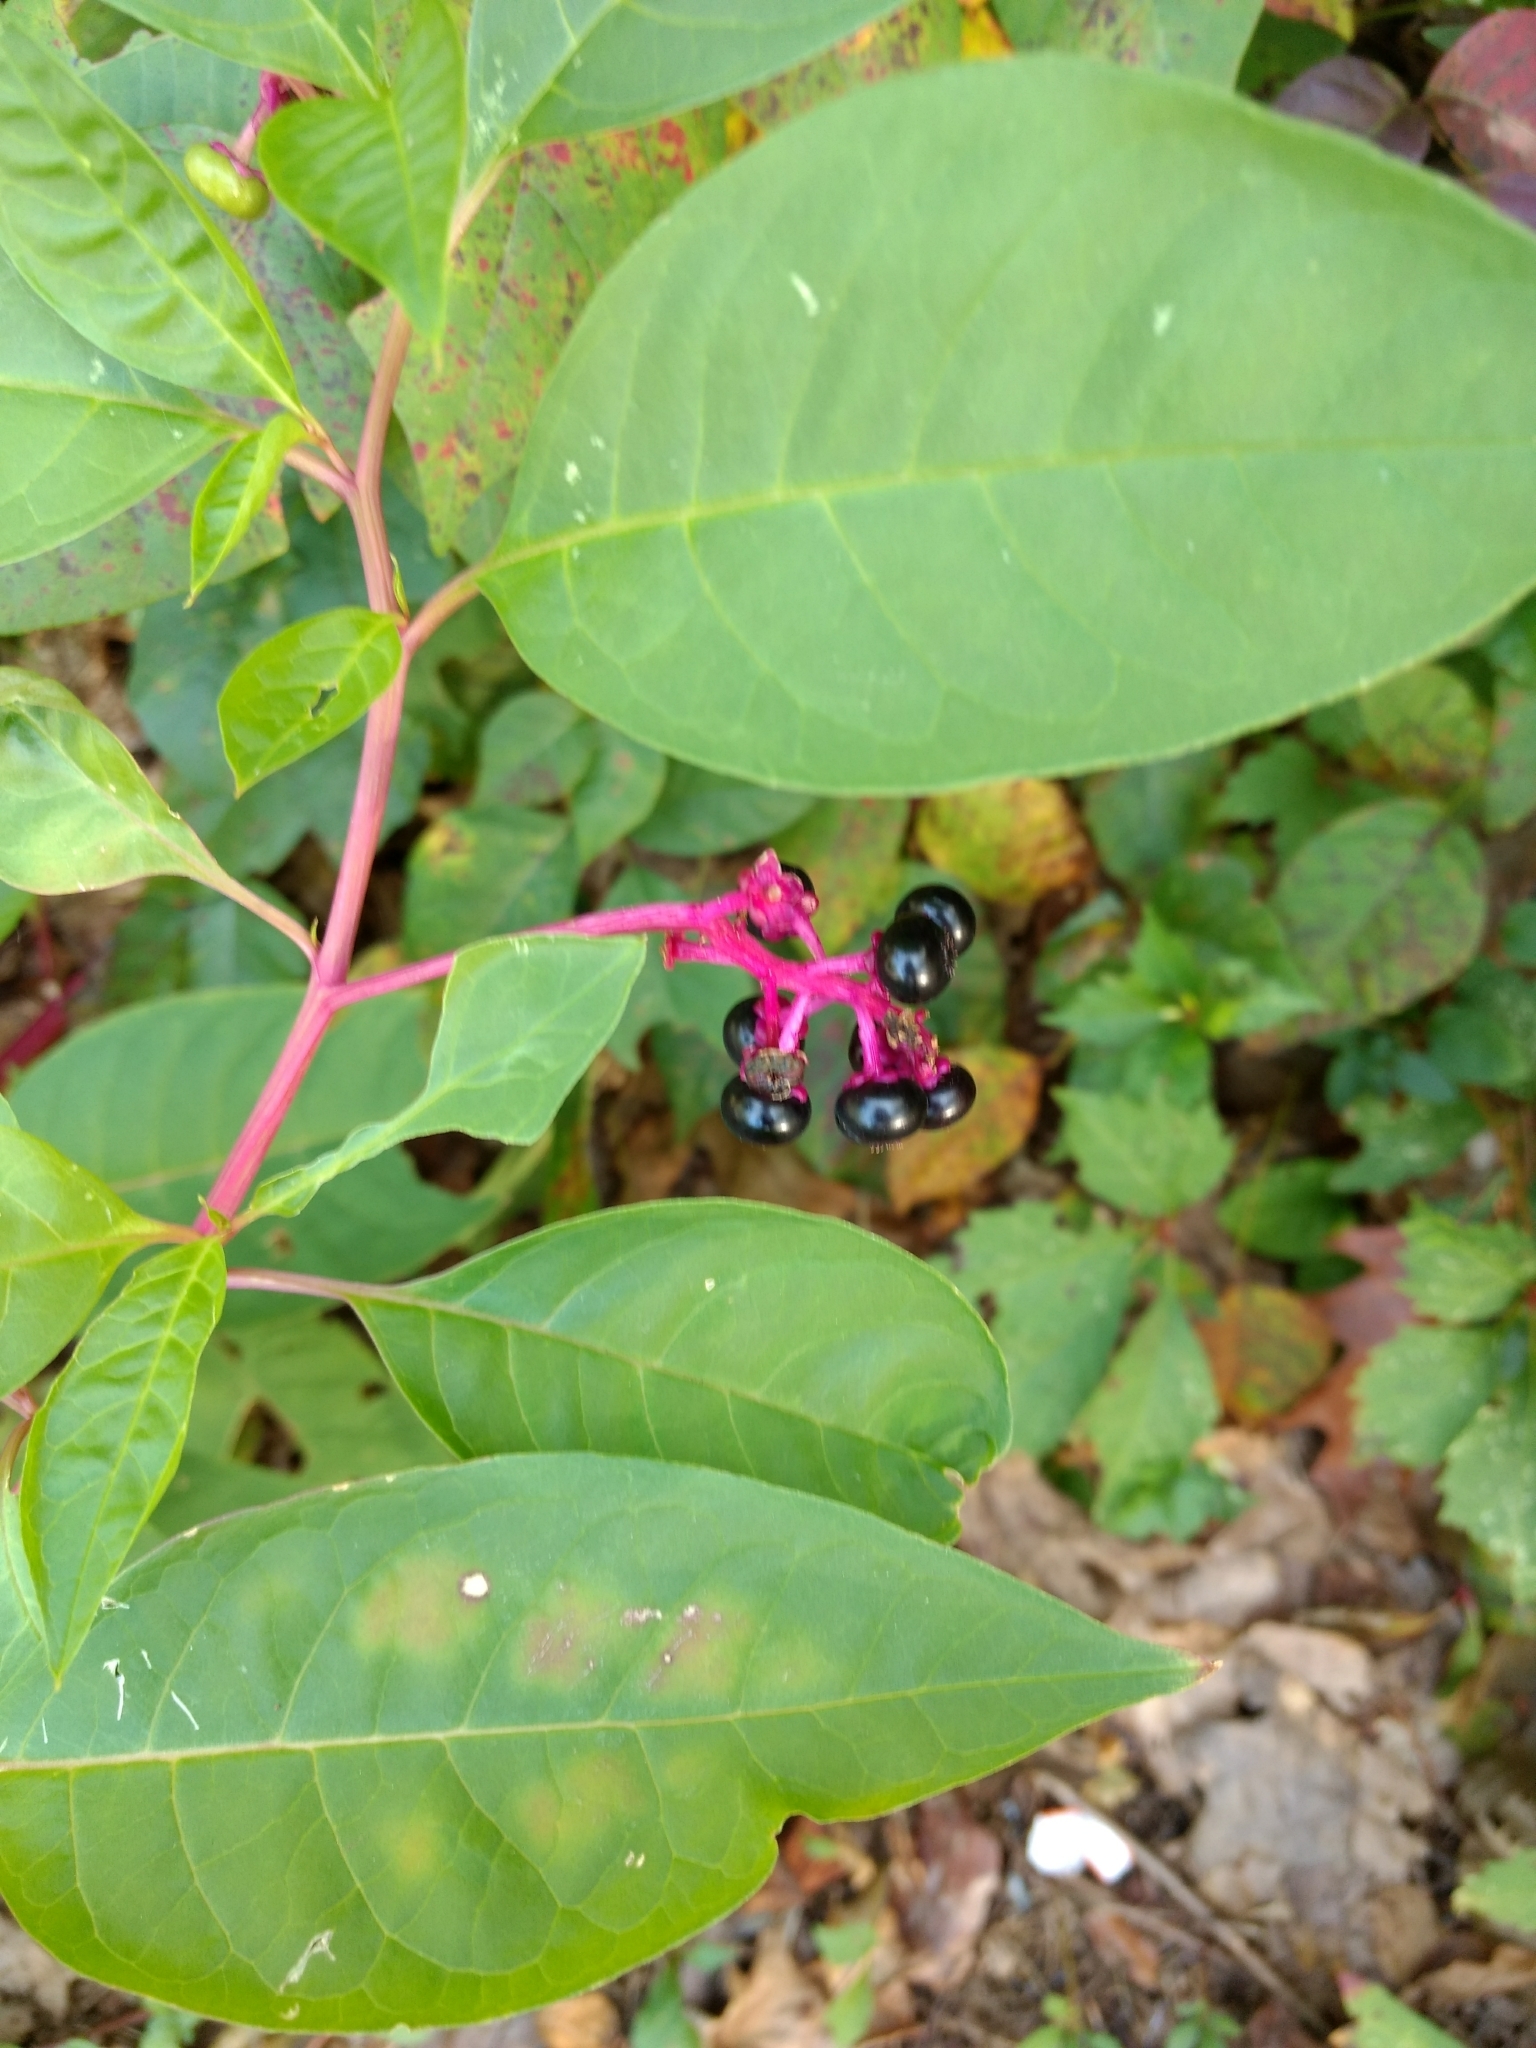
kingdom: Plantae
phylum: Tracheophyta
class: Magnoliopsida
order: Caryophyllales
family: Phytolaccaceae
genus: Phytolacca
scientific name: Phytolacca americana
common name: American pokeweed
